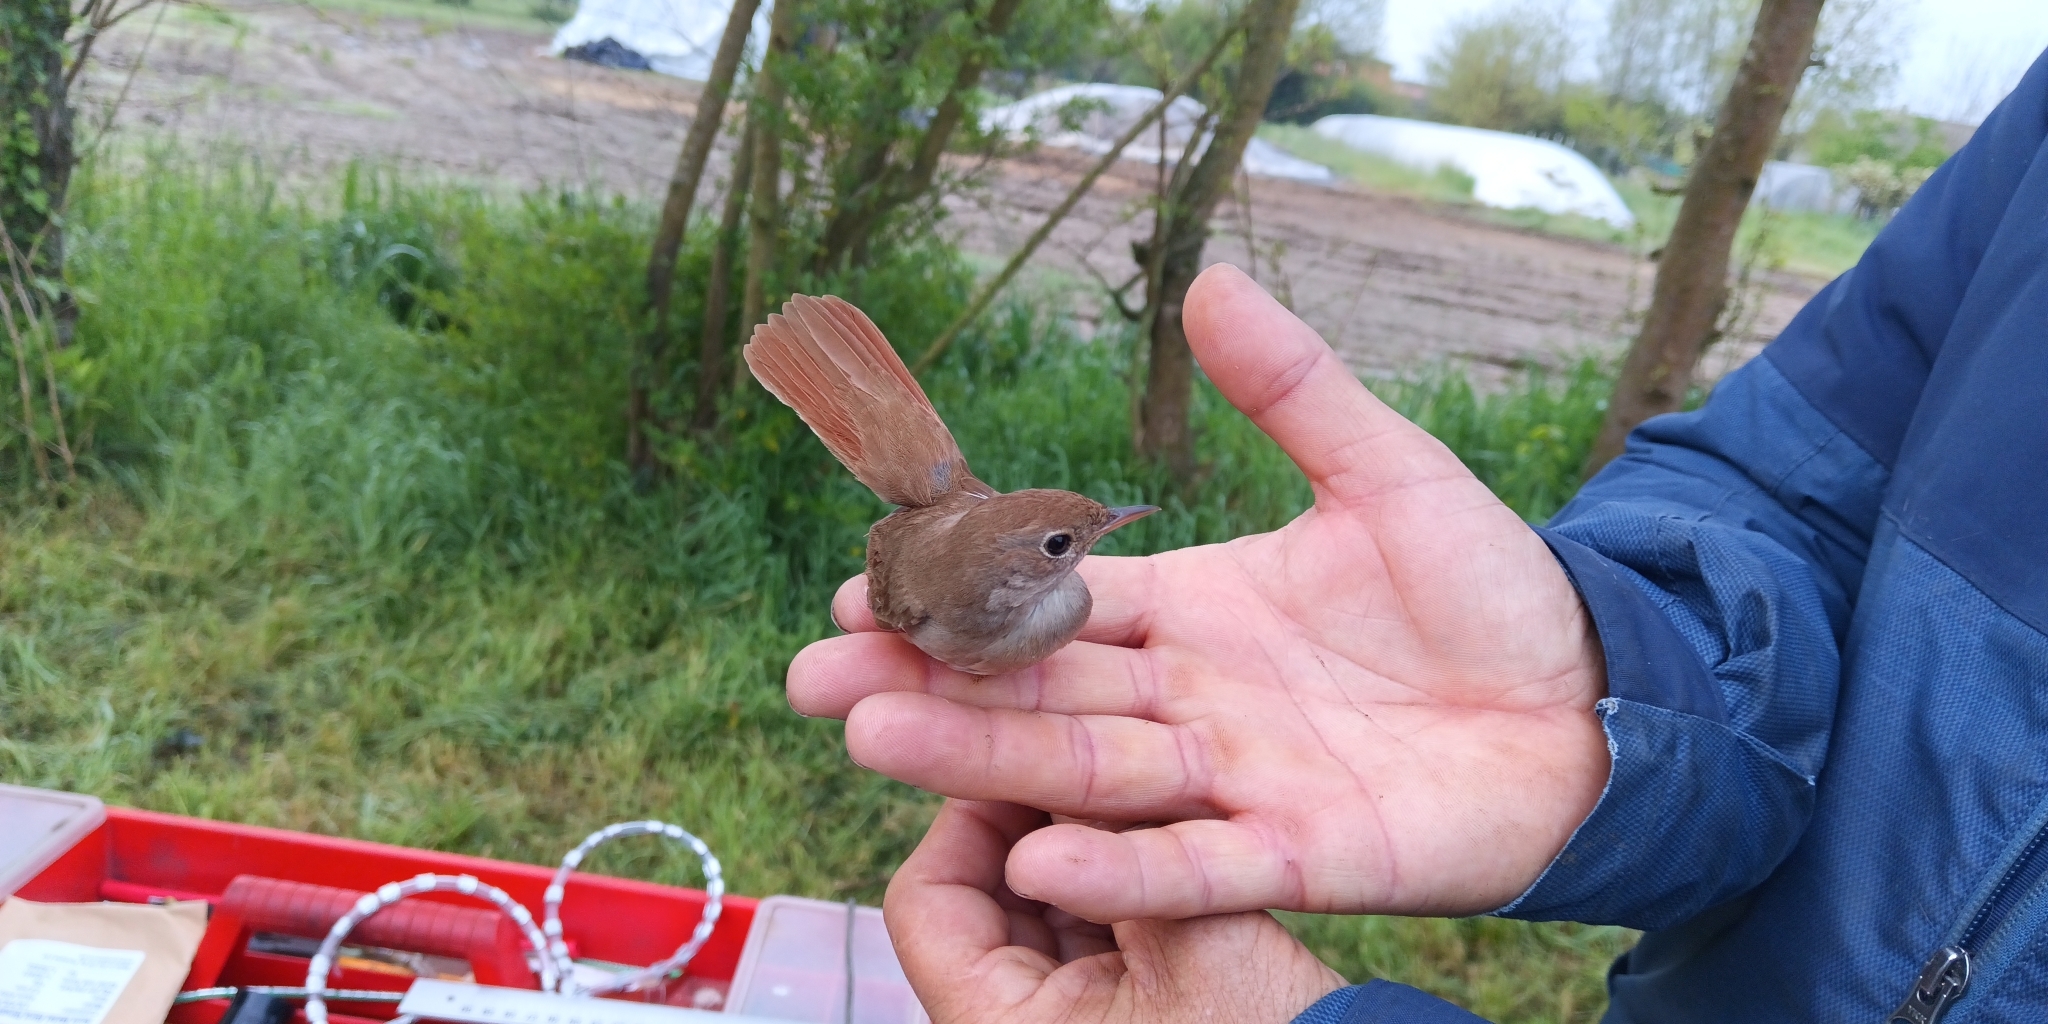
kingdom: Animalia
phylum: Chordata
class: Aves
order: Passeriformes
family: Muscicapidae
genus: Luscinia
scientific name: Luscinia megarhynchos
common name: Common nightingale
